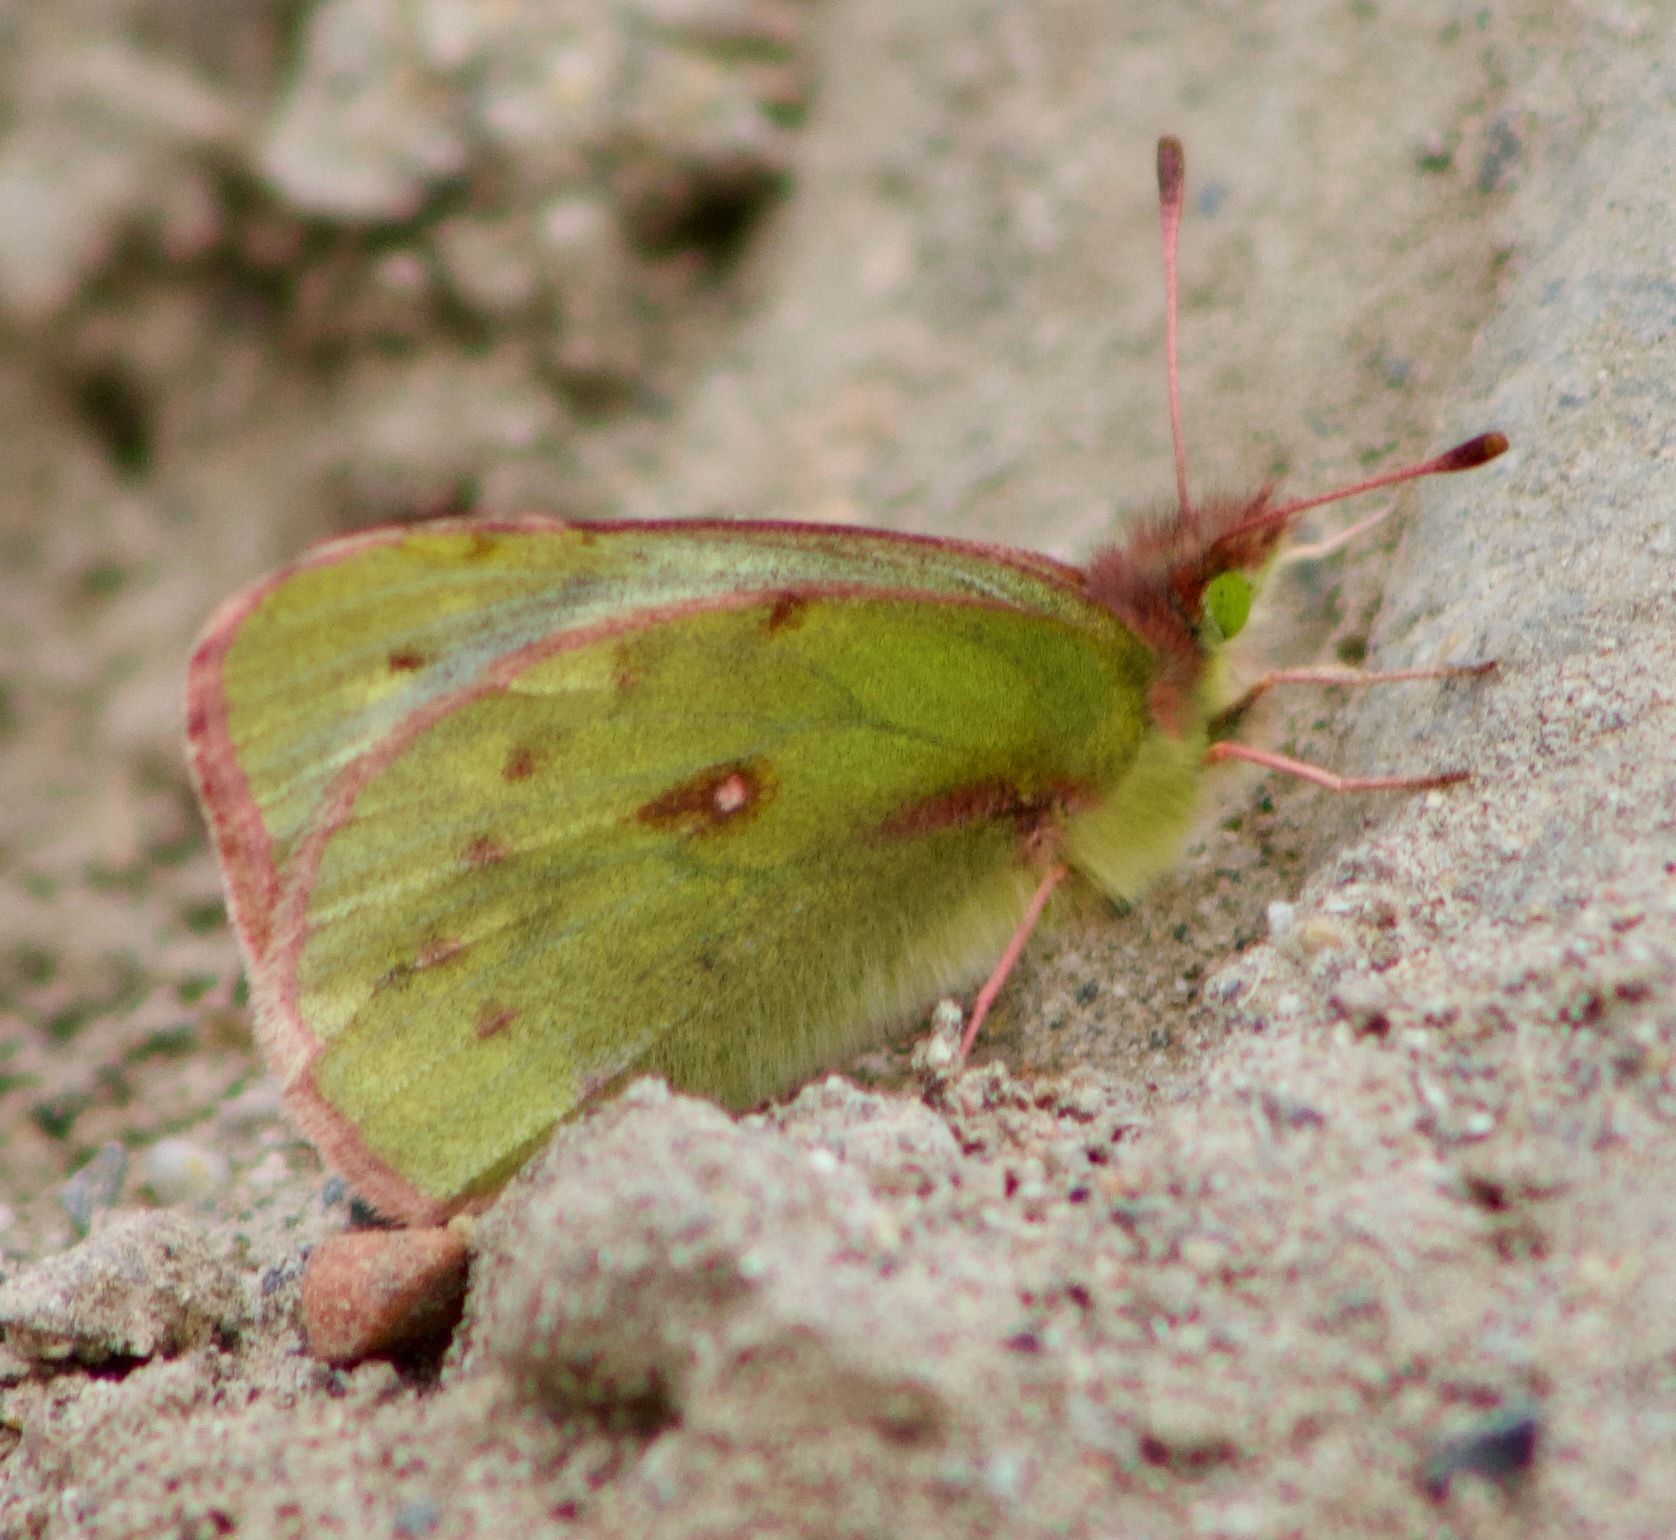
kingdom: Animalia
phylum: Arthropoda
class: Insecta
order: Lepidoptera
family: Pieridae
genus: Colias
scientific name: Colias vauthierii
